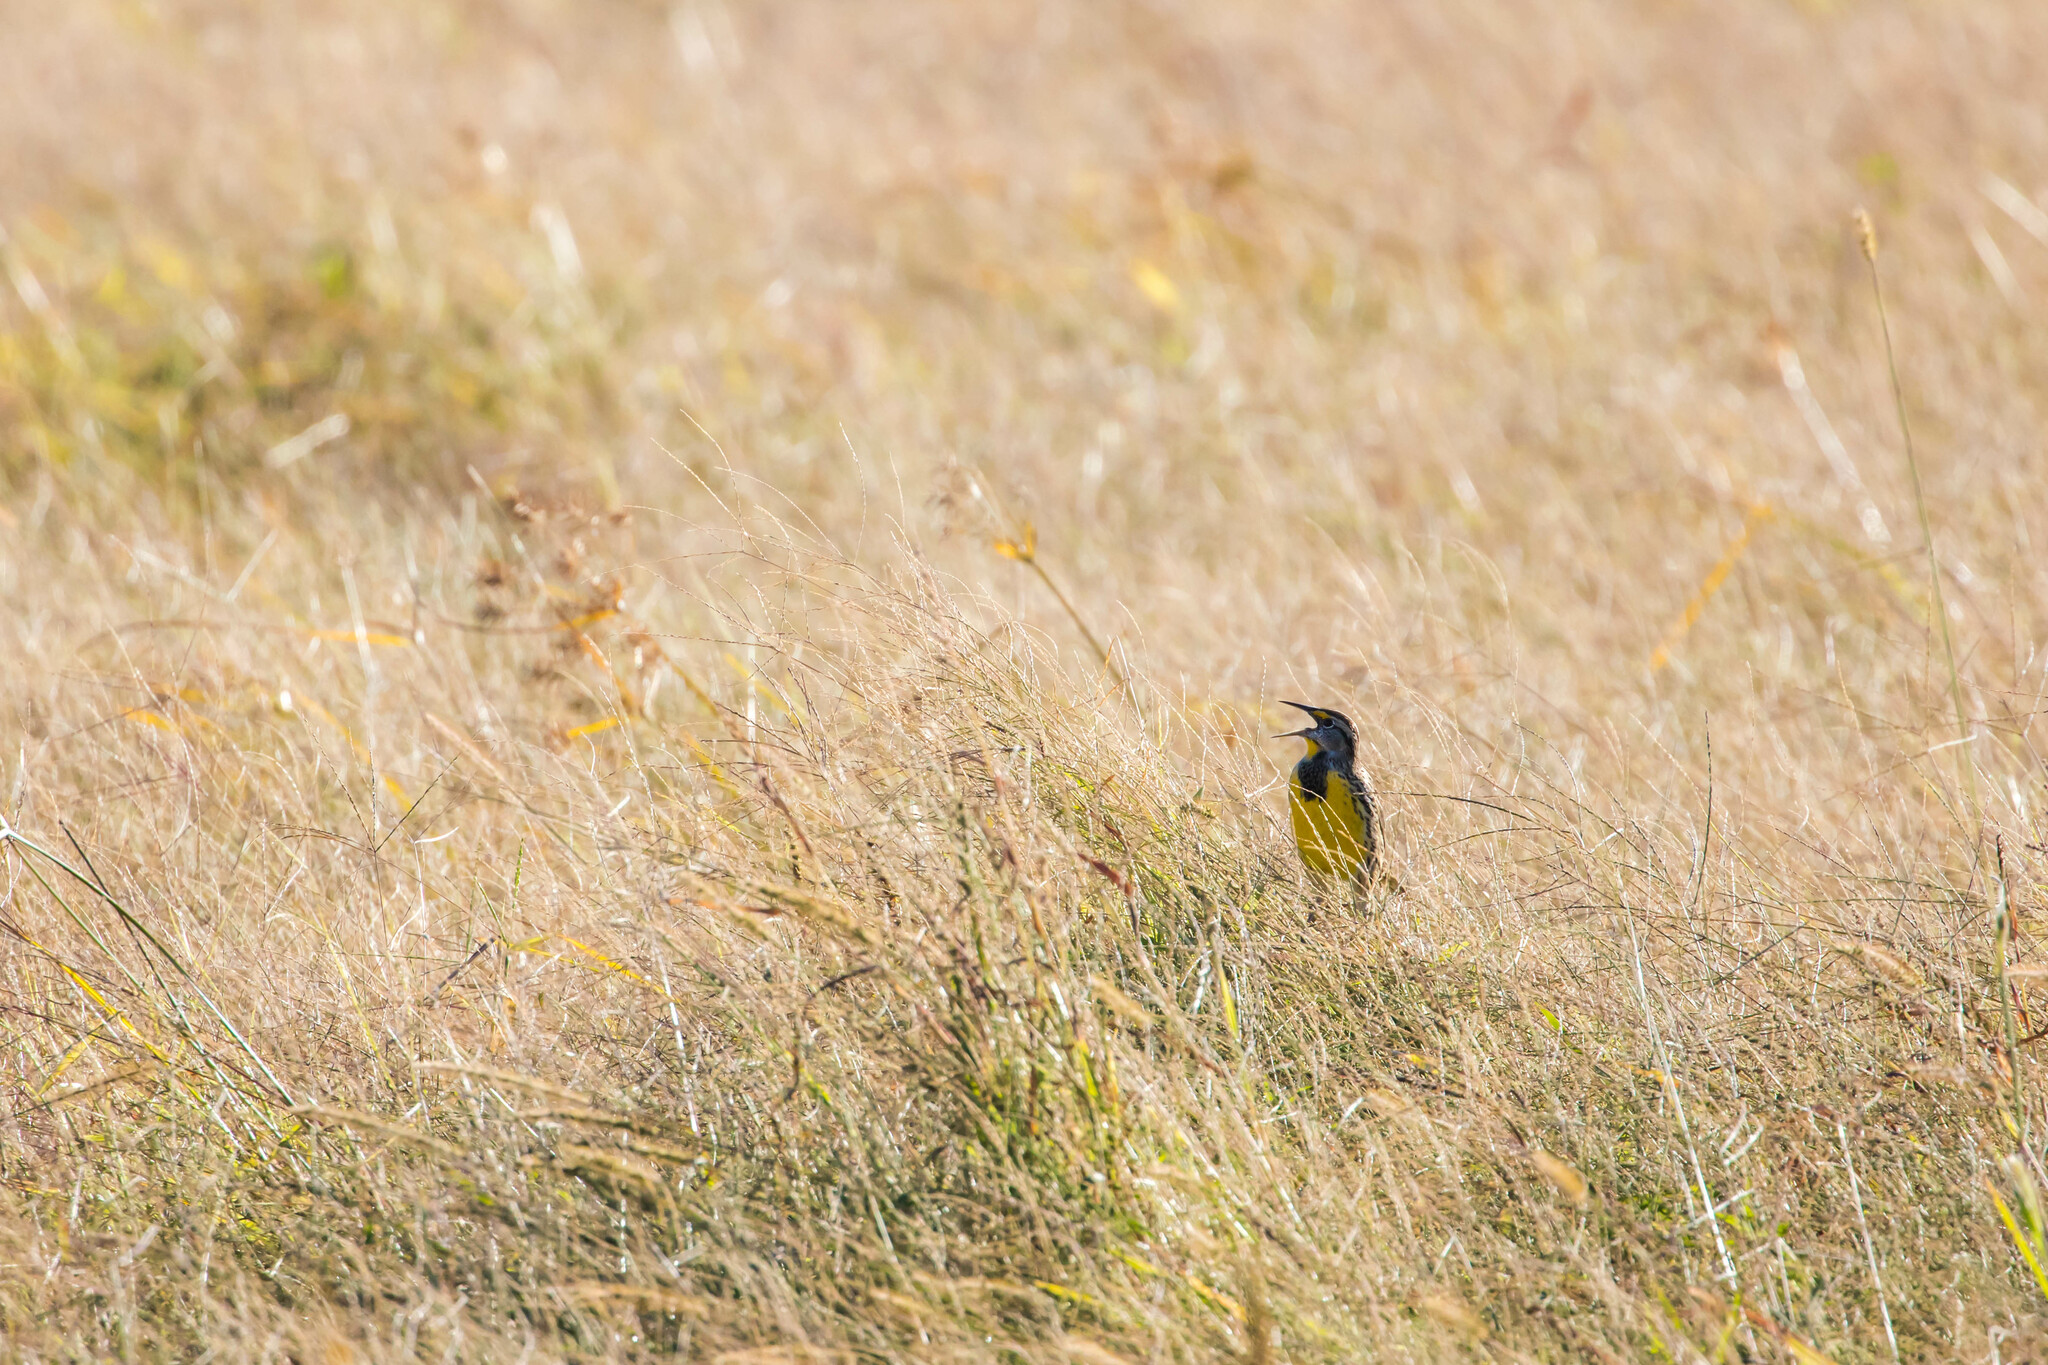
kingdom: Animalia
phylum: Chordata
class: Aves
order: Passeriformes
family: Icteridae
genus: Sturnella
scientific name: Sturnella magna
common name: Eastern meadowlark
